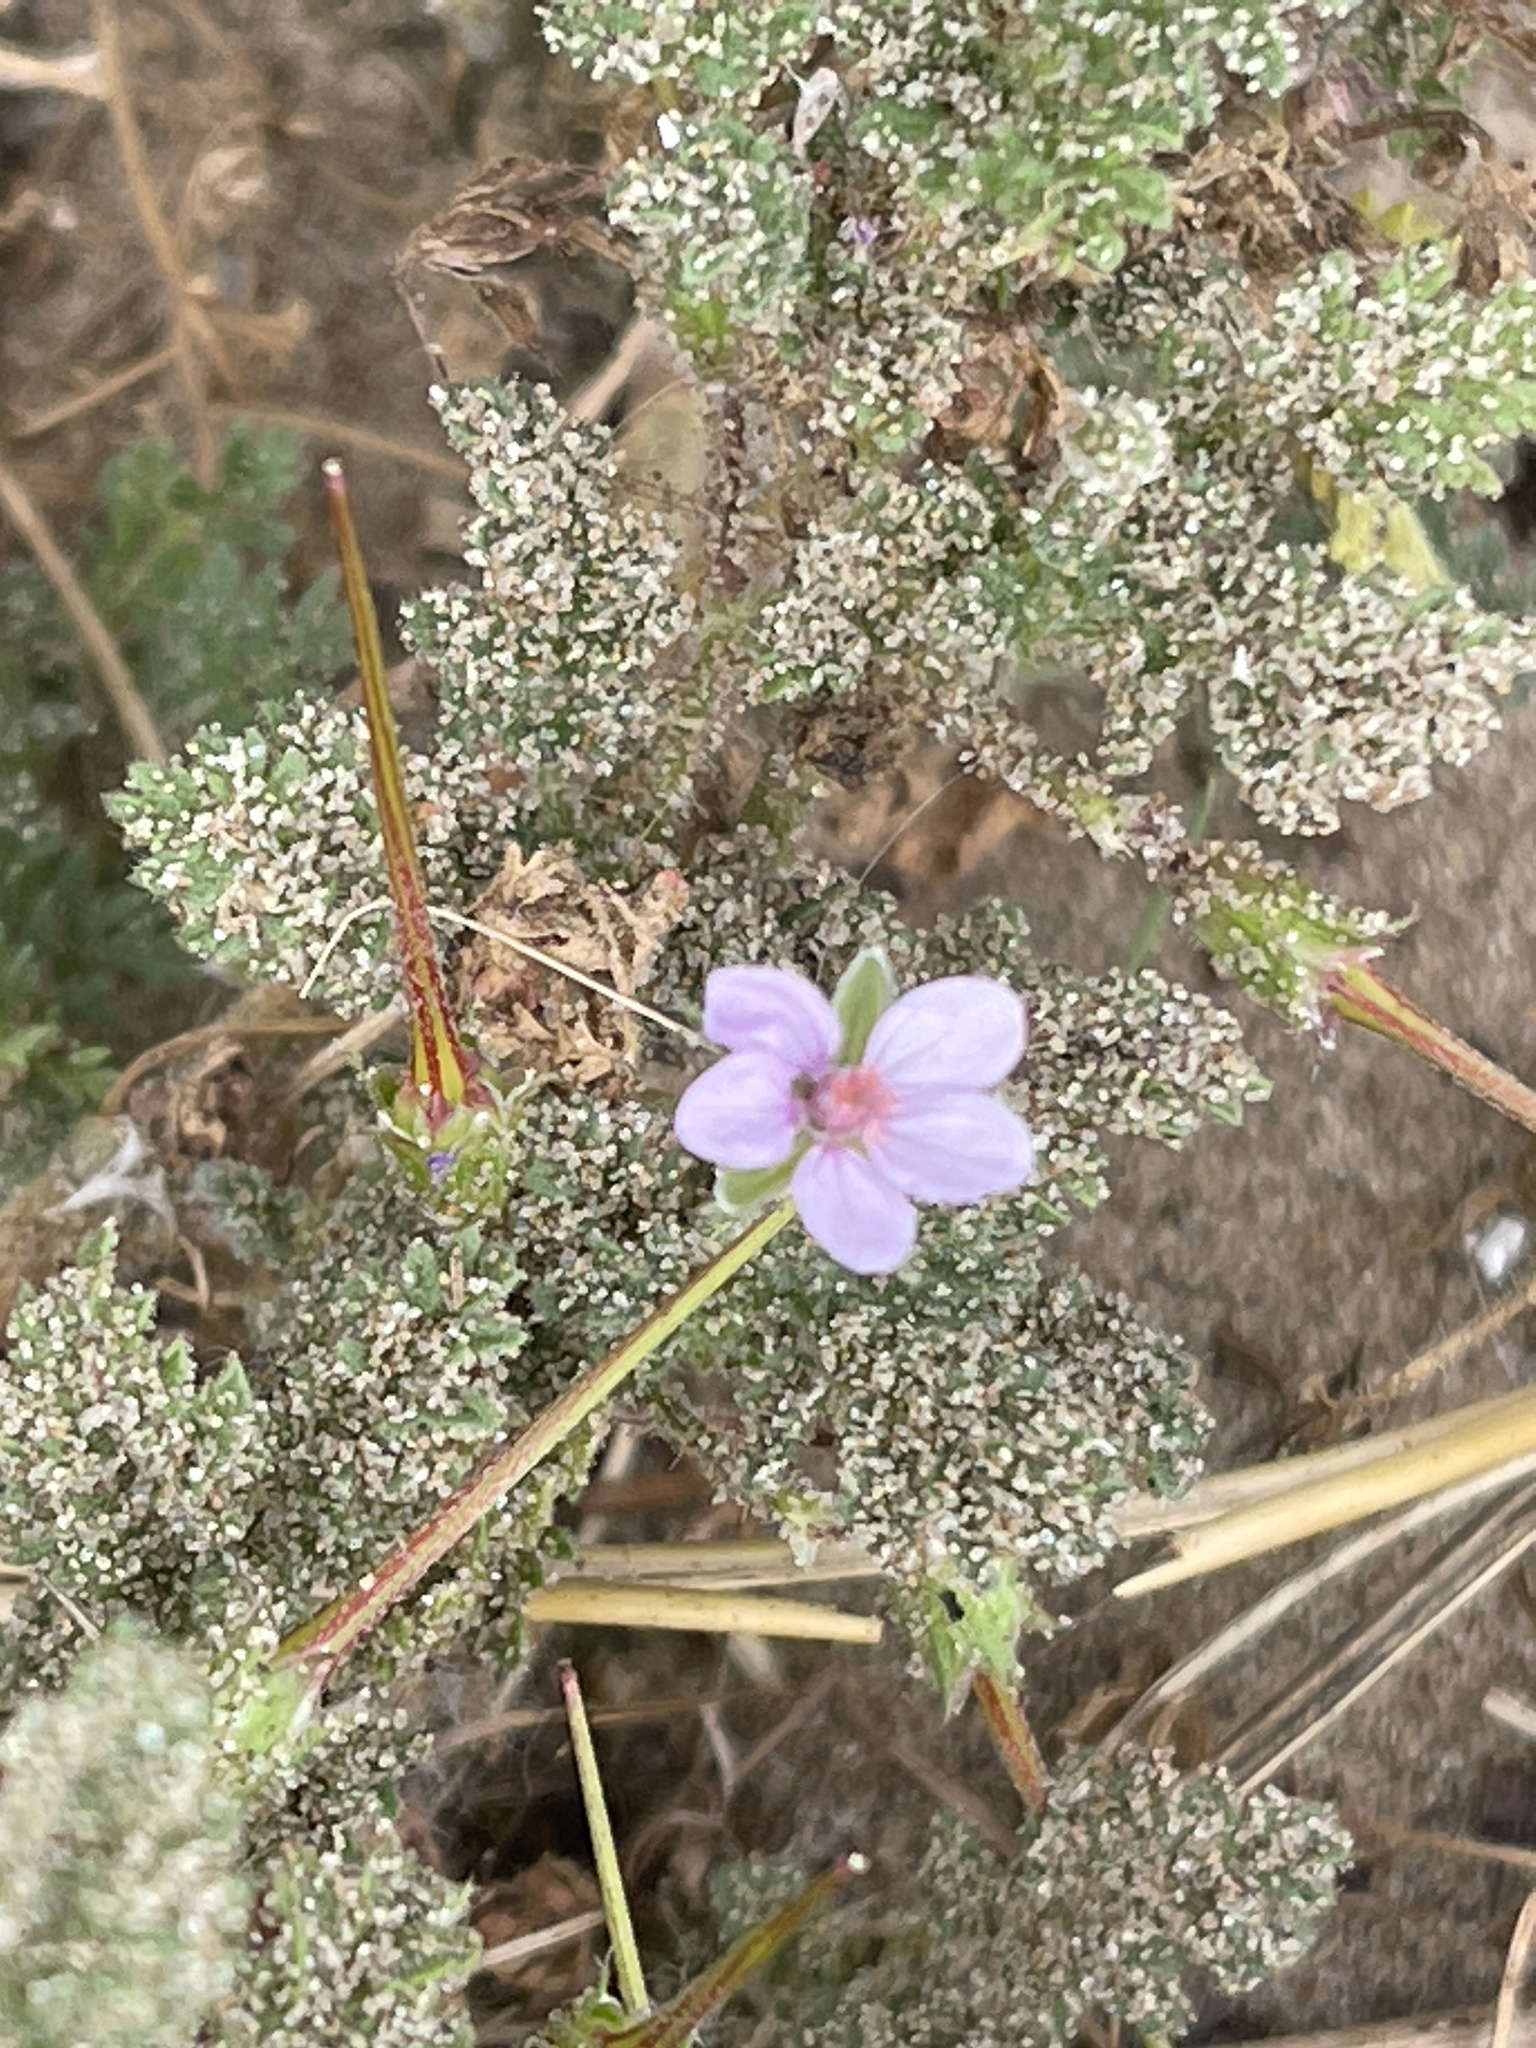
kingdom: Plantae
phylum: Tracheophyta
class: Magnoliopsida
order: Geraniales
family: Geraniaceae
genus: Erodium
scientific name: Erodium aethiopicum
